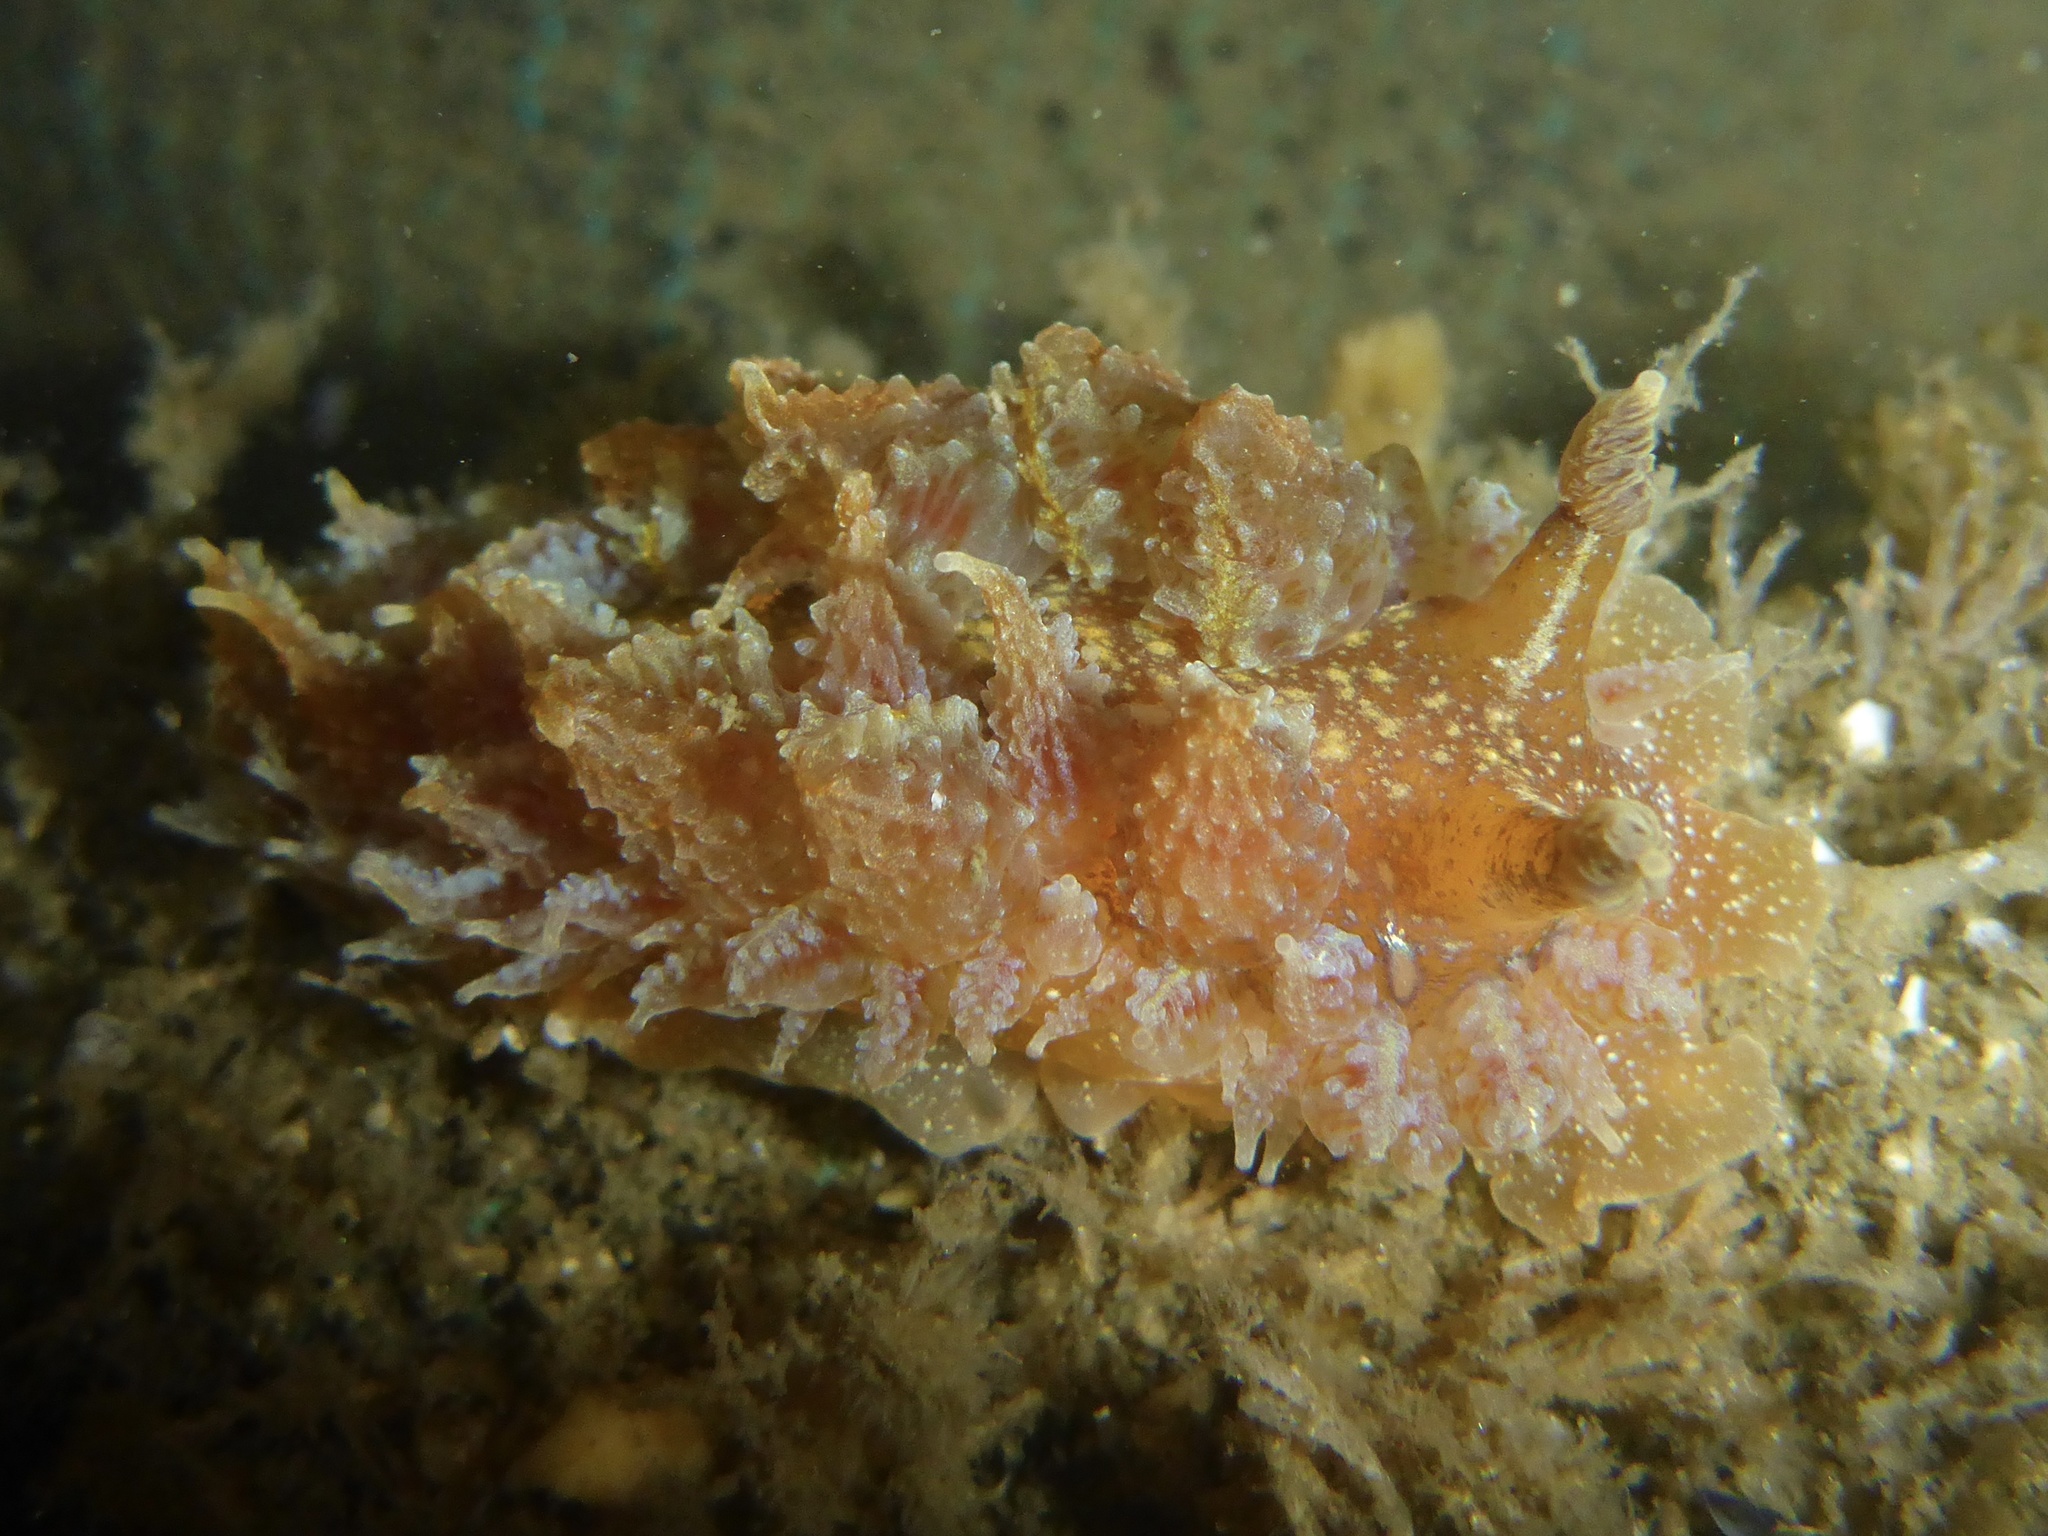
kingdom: Animalia
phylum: Mollusca
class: Gastropoda
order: Nudibranchia
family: Dironidae
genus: Dirona
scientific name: Dirona picta
